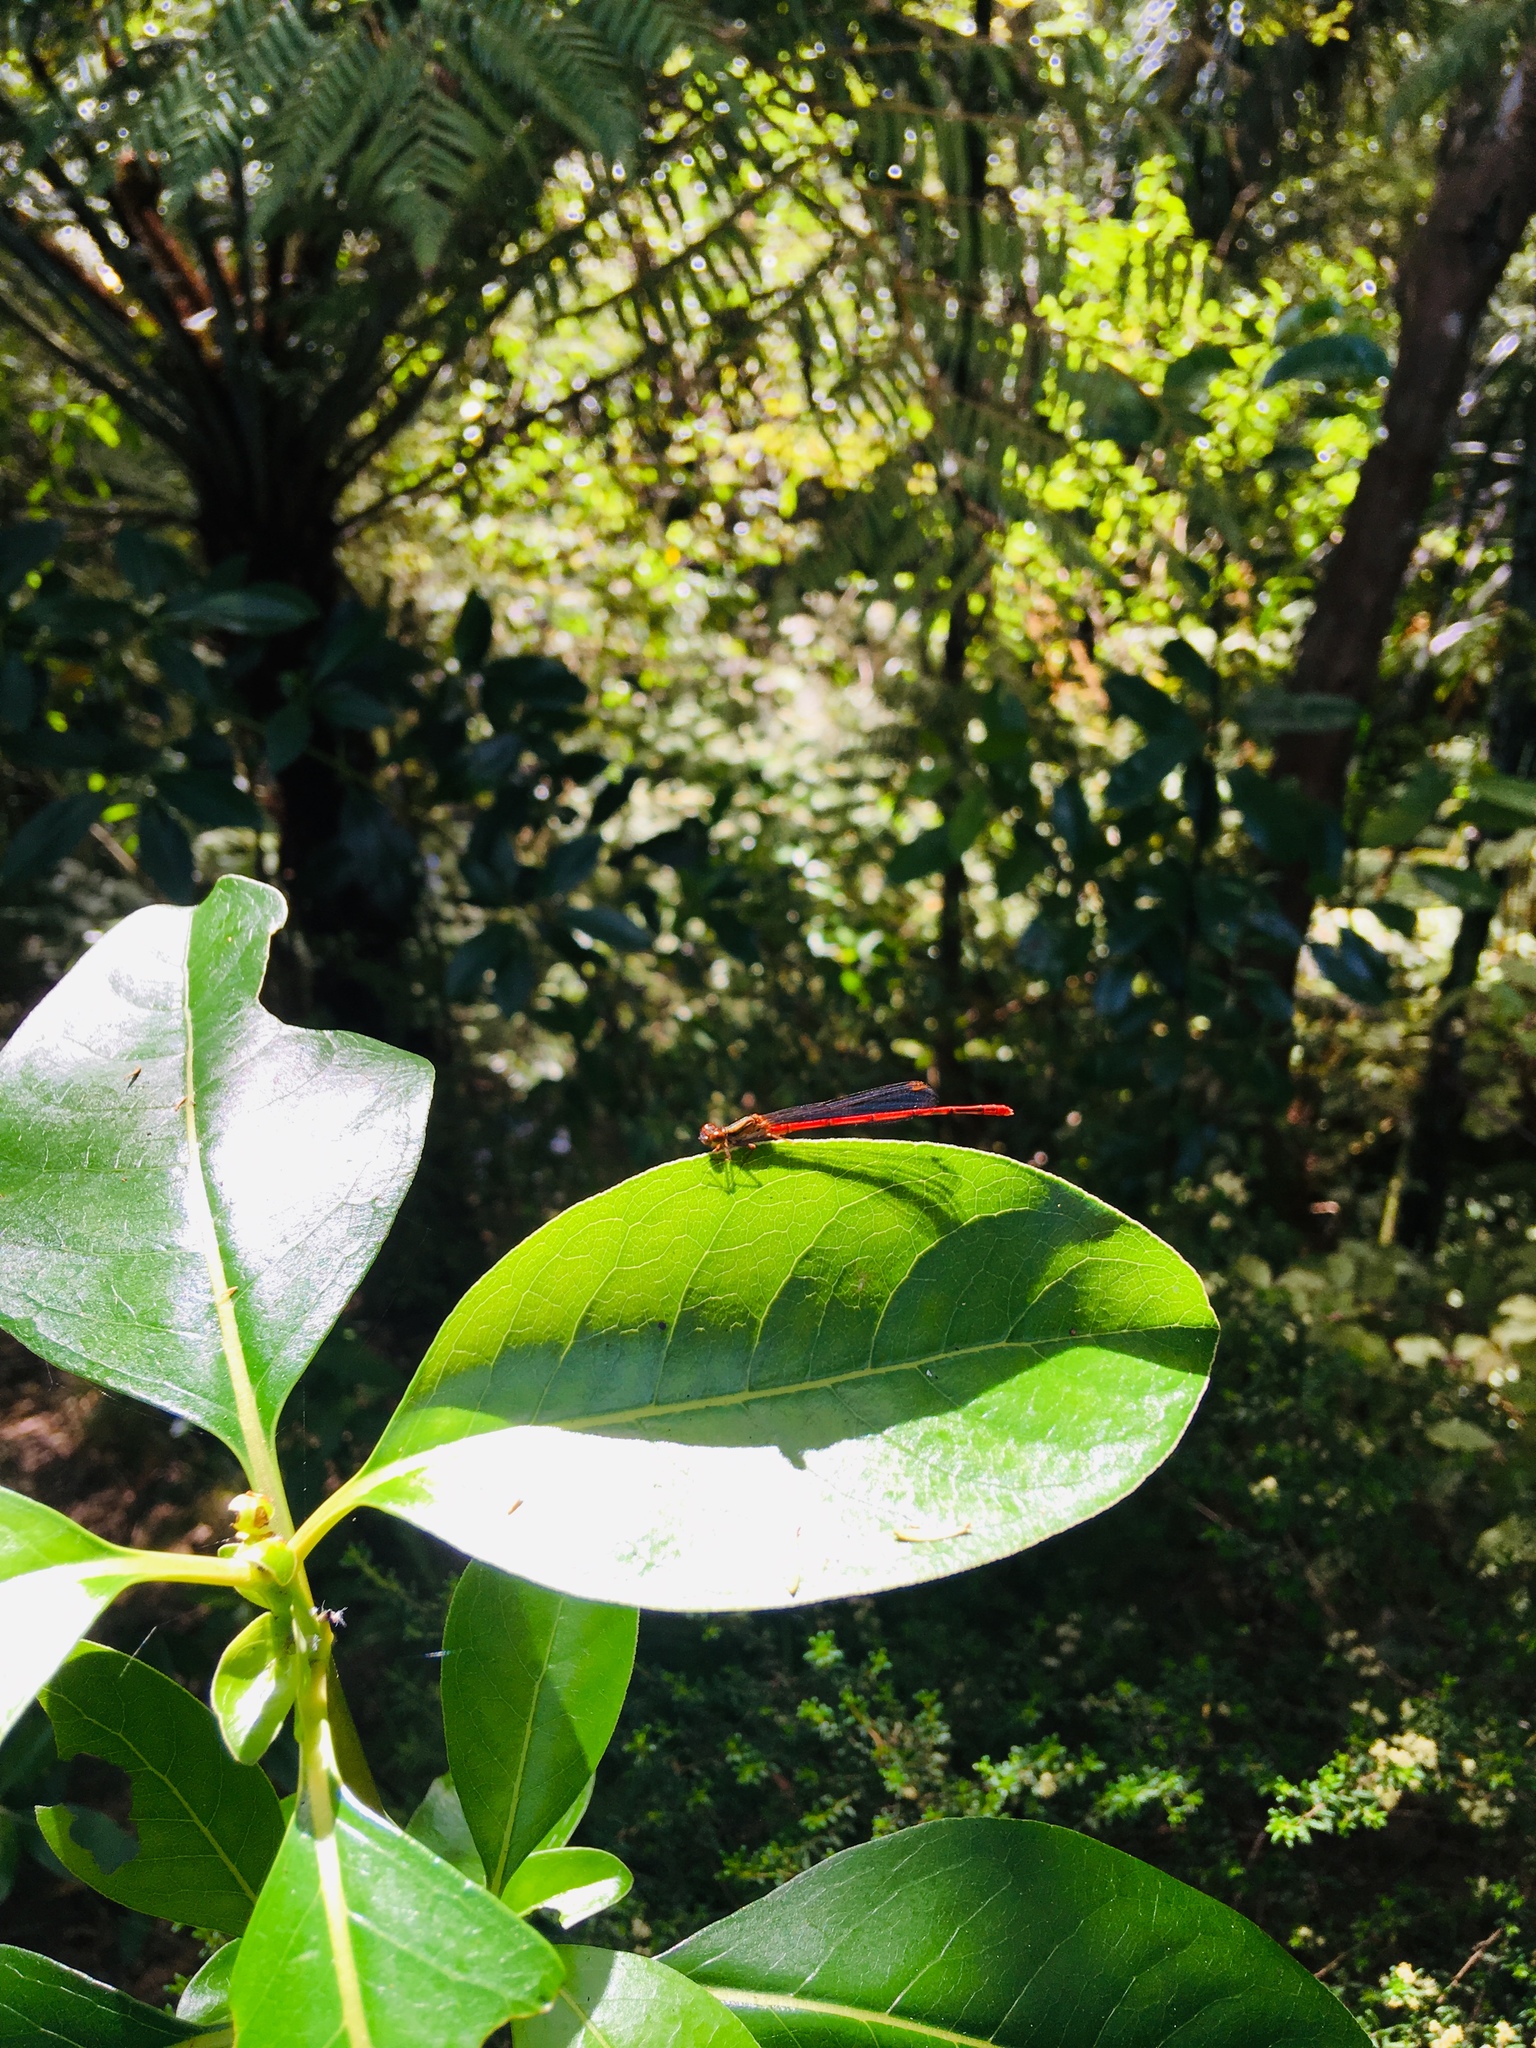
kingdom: Animalia
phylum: Arthropoda
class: Insecta
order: Odonata
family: Coenagrionidae
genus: Xanthocnemis
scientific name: Xanthocnemis zealandica
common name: Common redcoat damselfly
